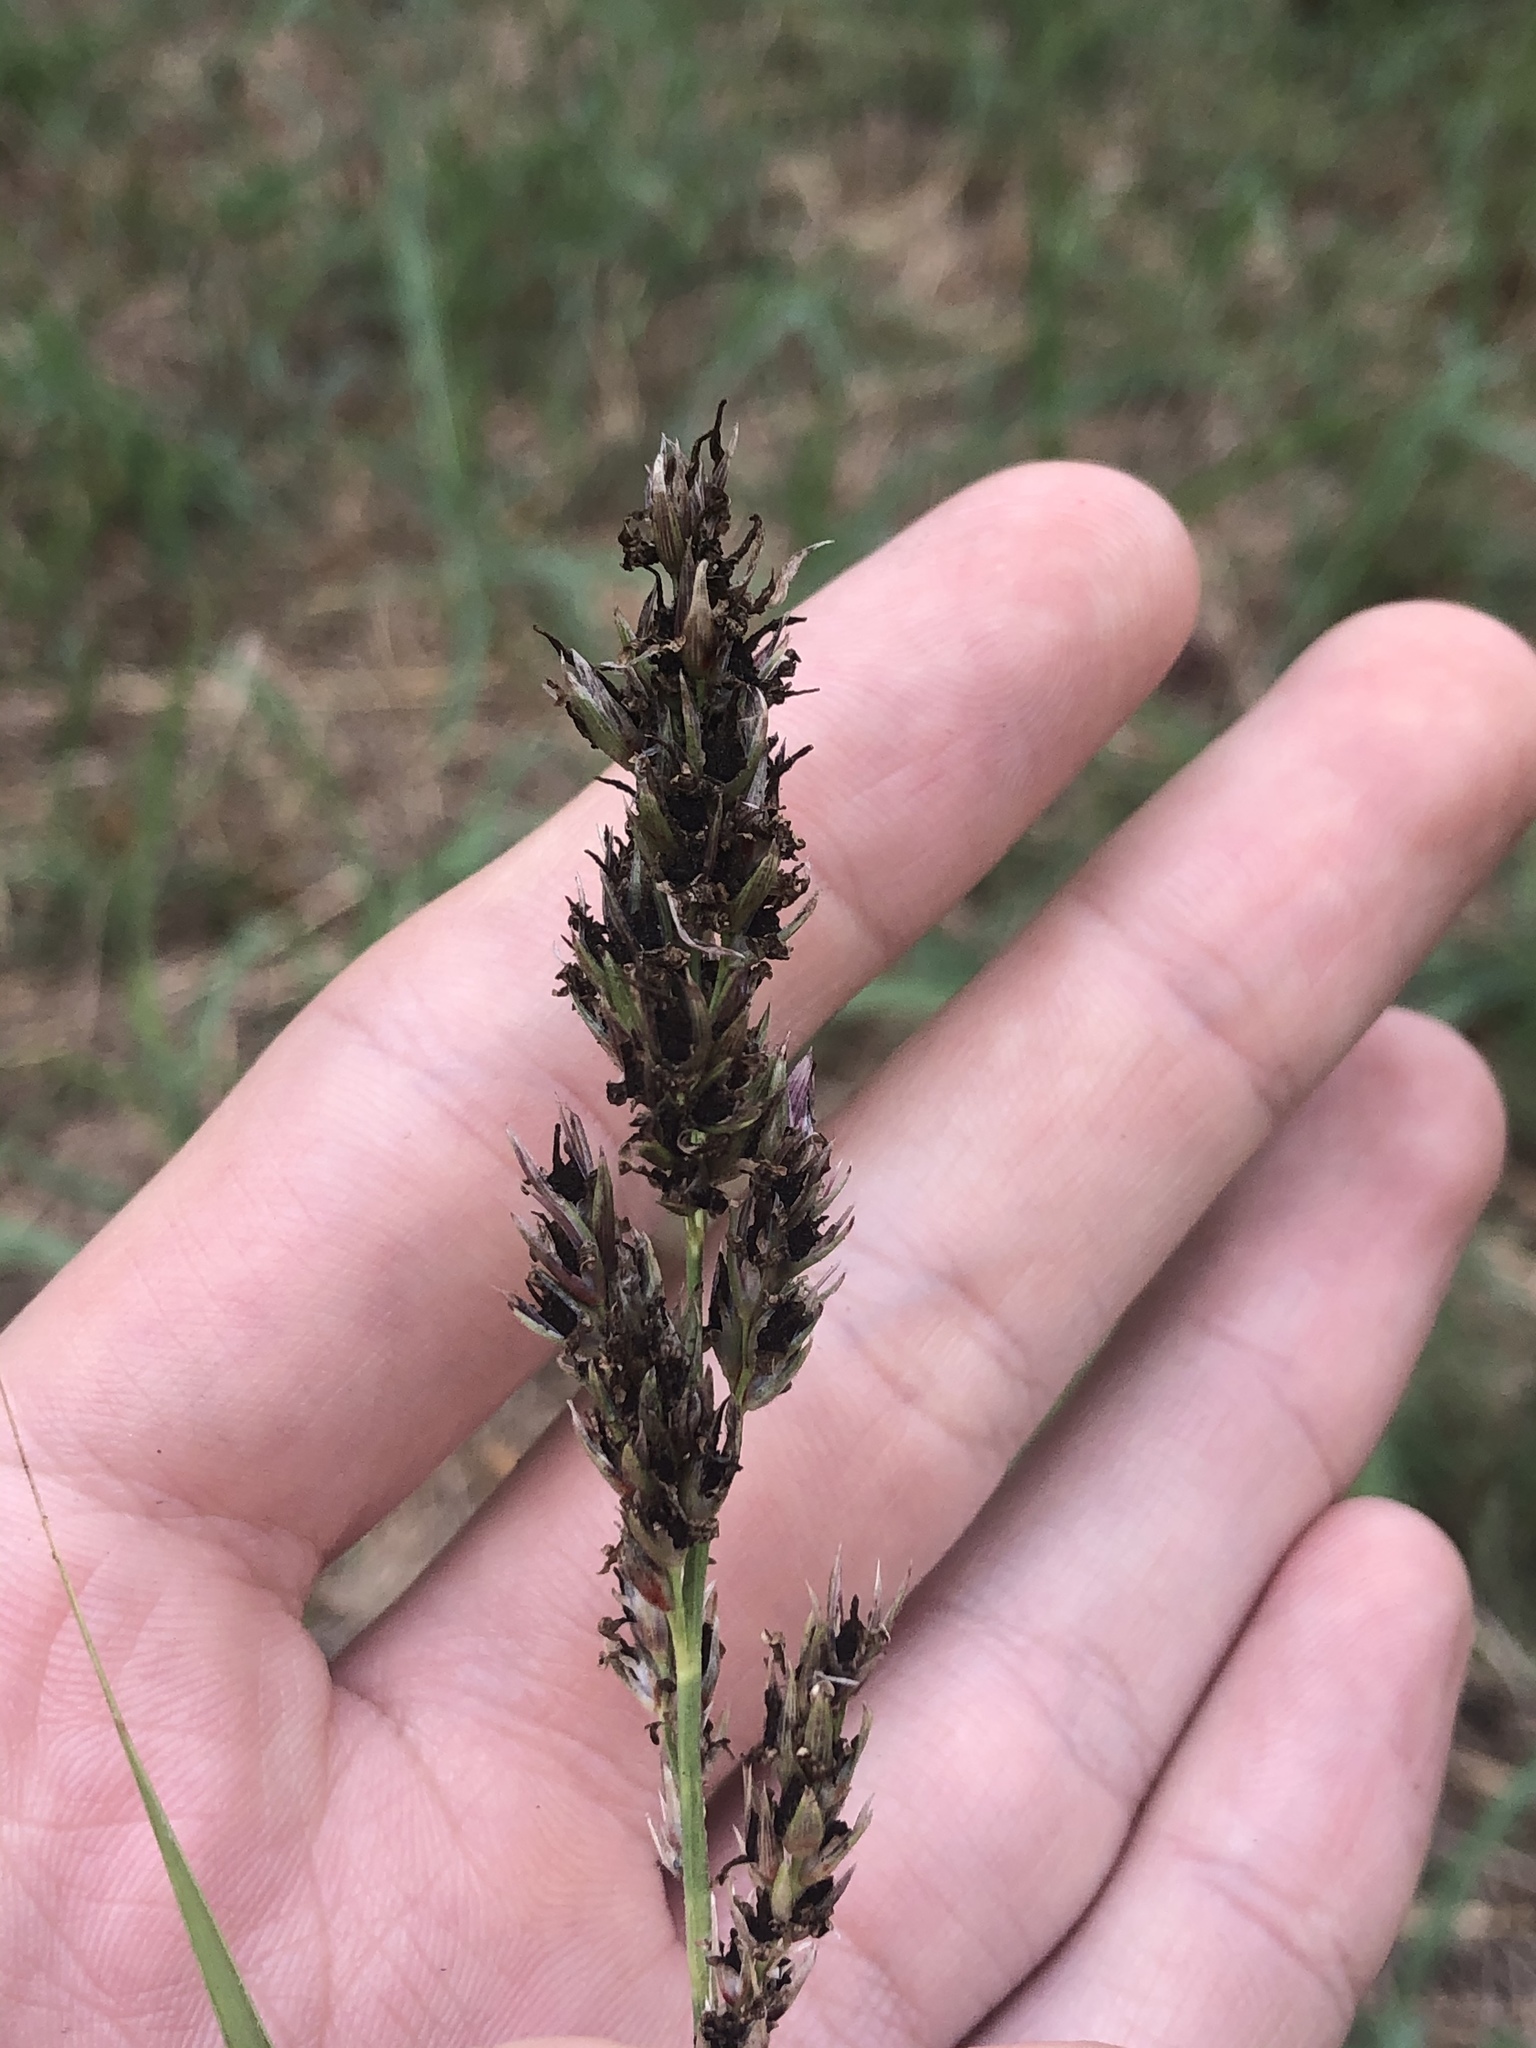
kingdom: Plantae
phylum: Tracheophyta
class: Liliopsida
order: Poales
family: Poaceae
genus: Sorghum
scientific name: Sorghum halepense
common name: Johnson-grass
